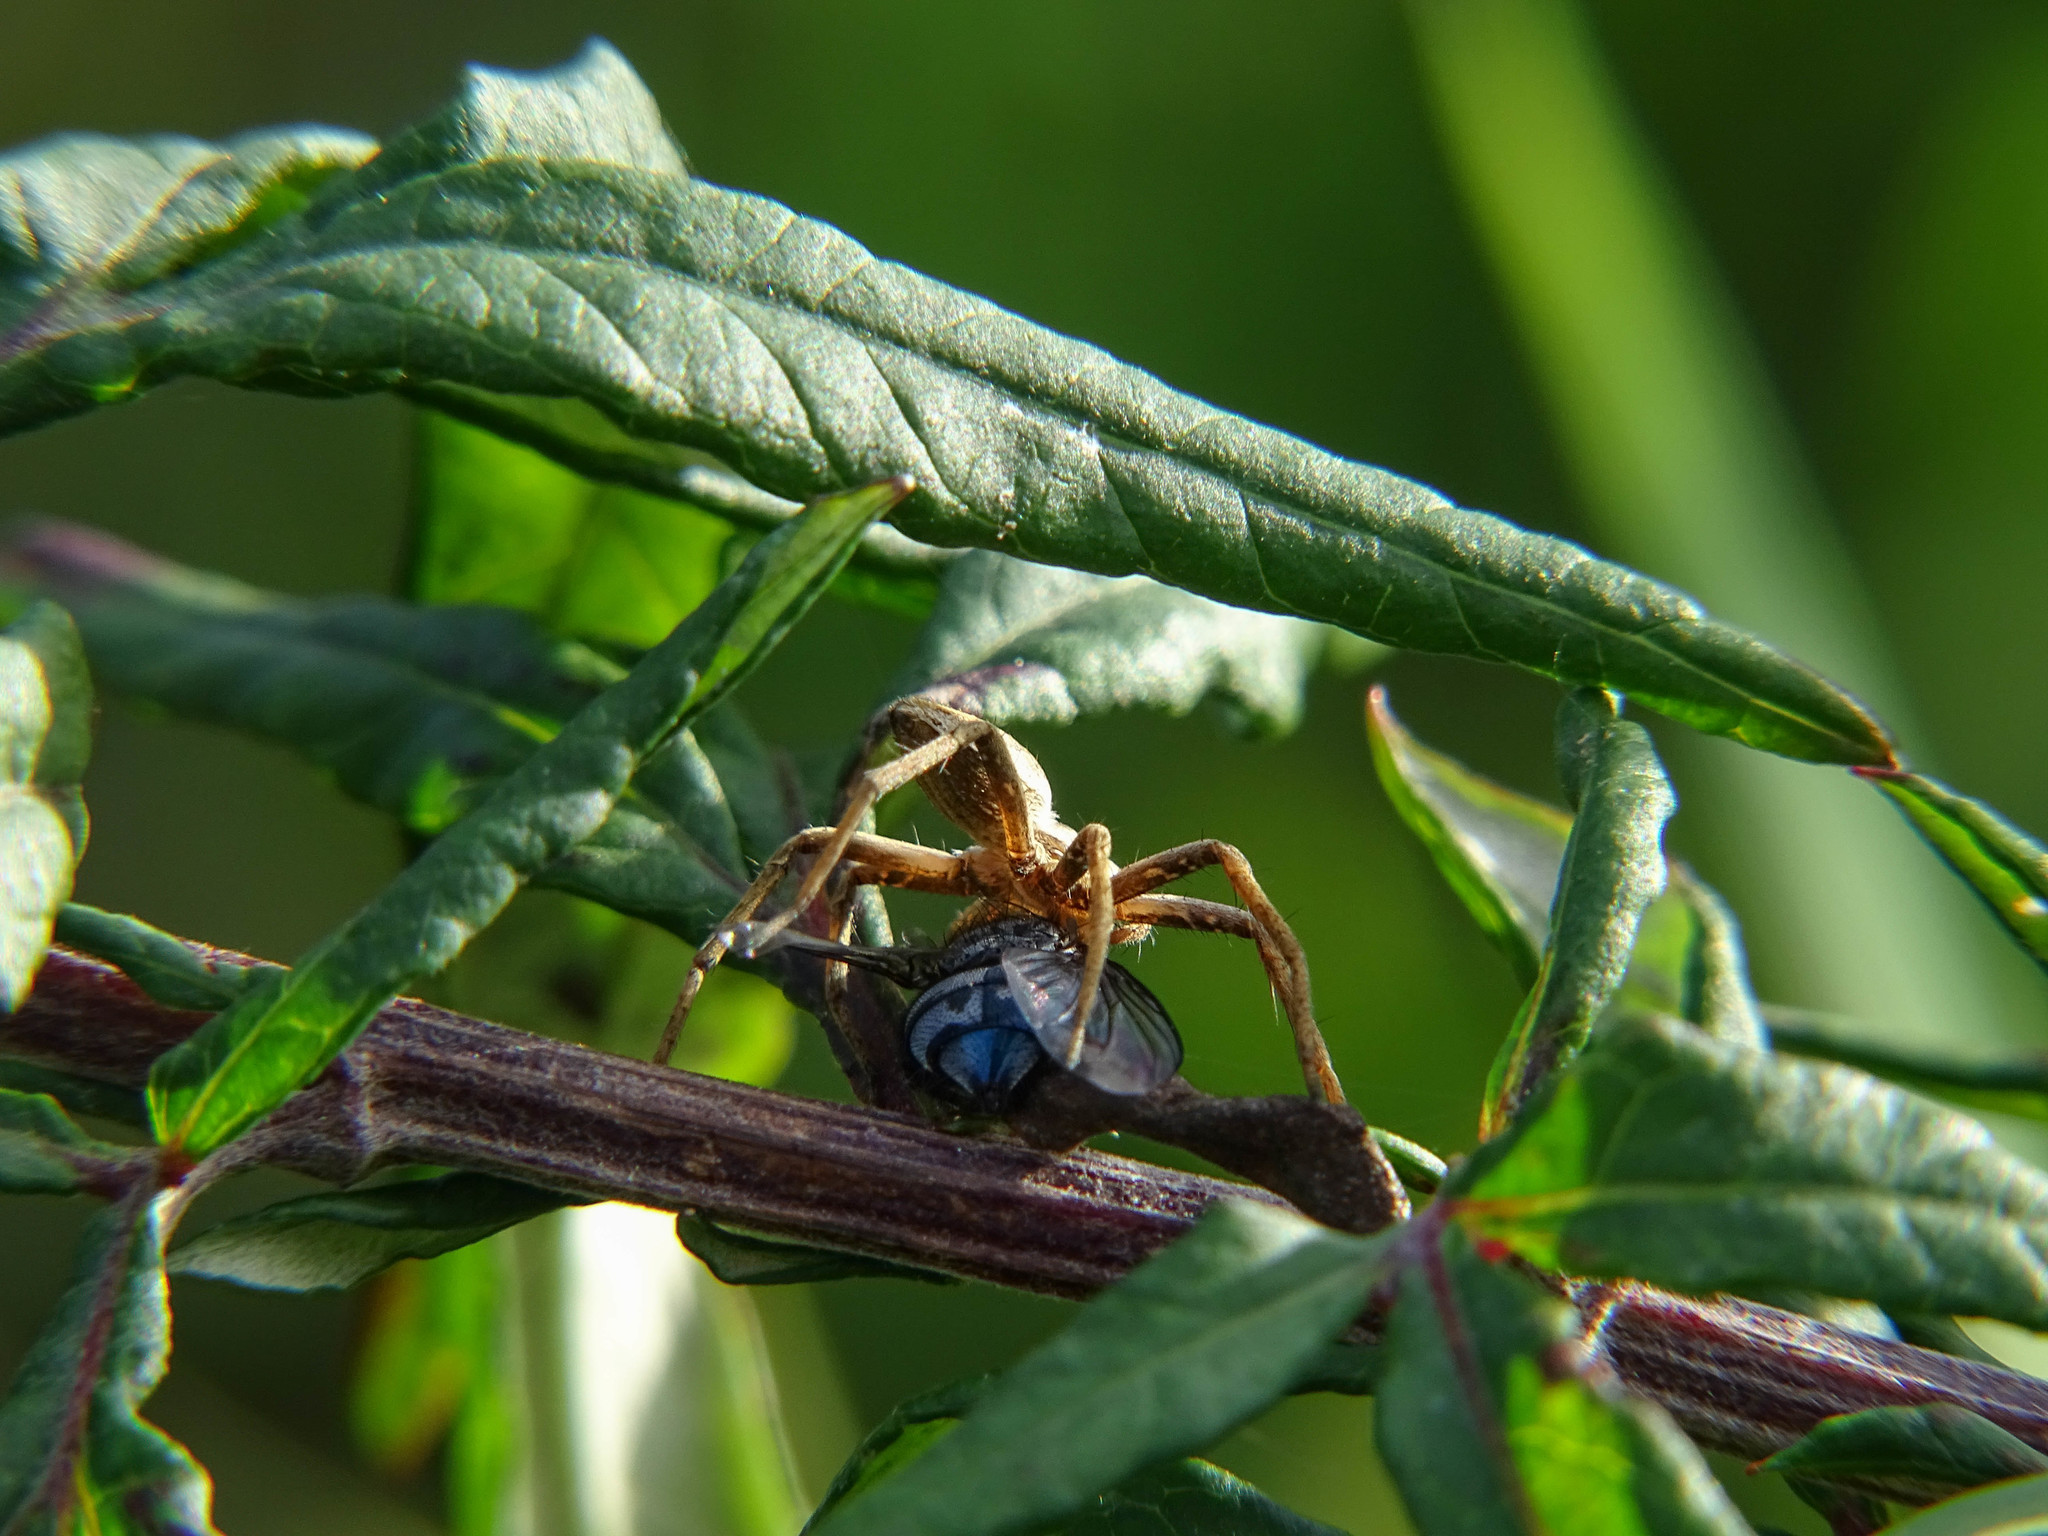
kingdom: Animalia
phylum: Arthropoda
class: Arachnida
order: Araneae
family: Pisauridae
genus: Pisaura
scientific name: Pisaura mirabilis
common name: Tent spider
